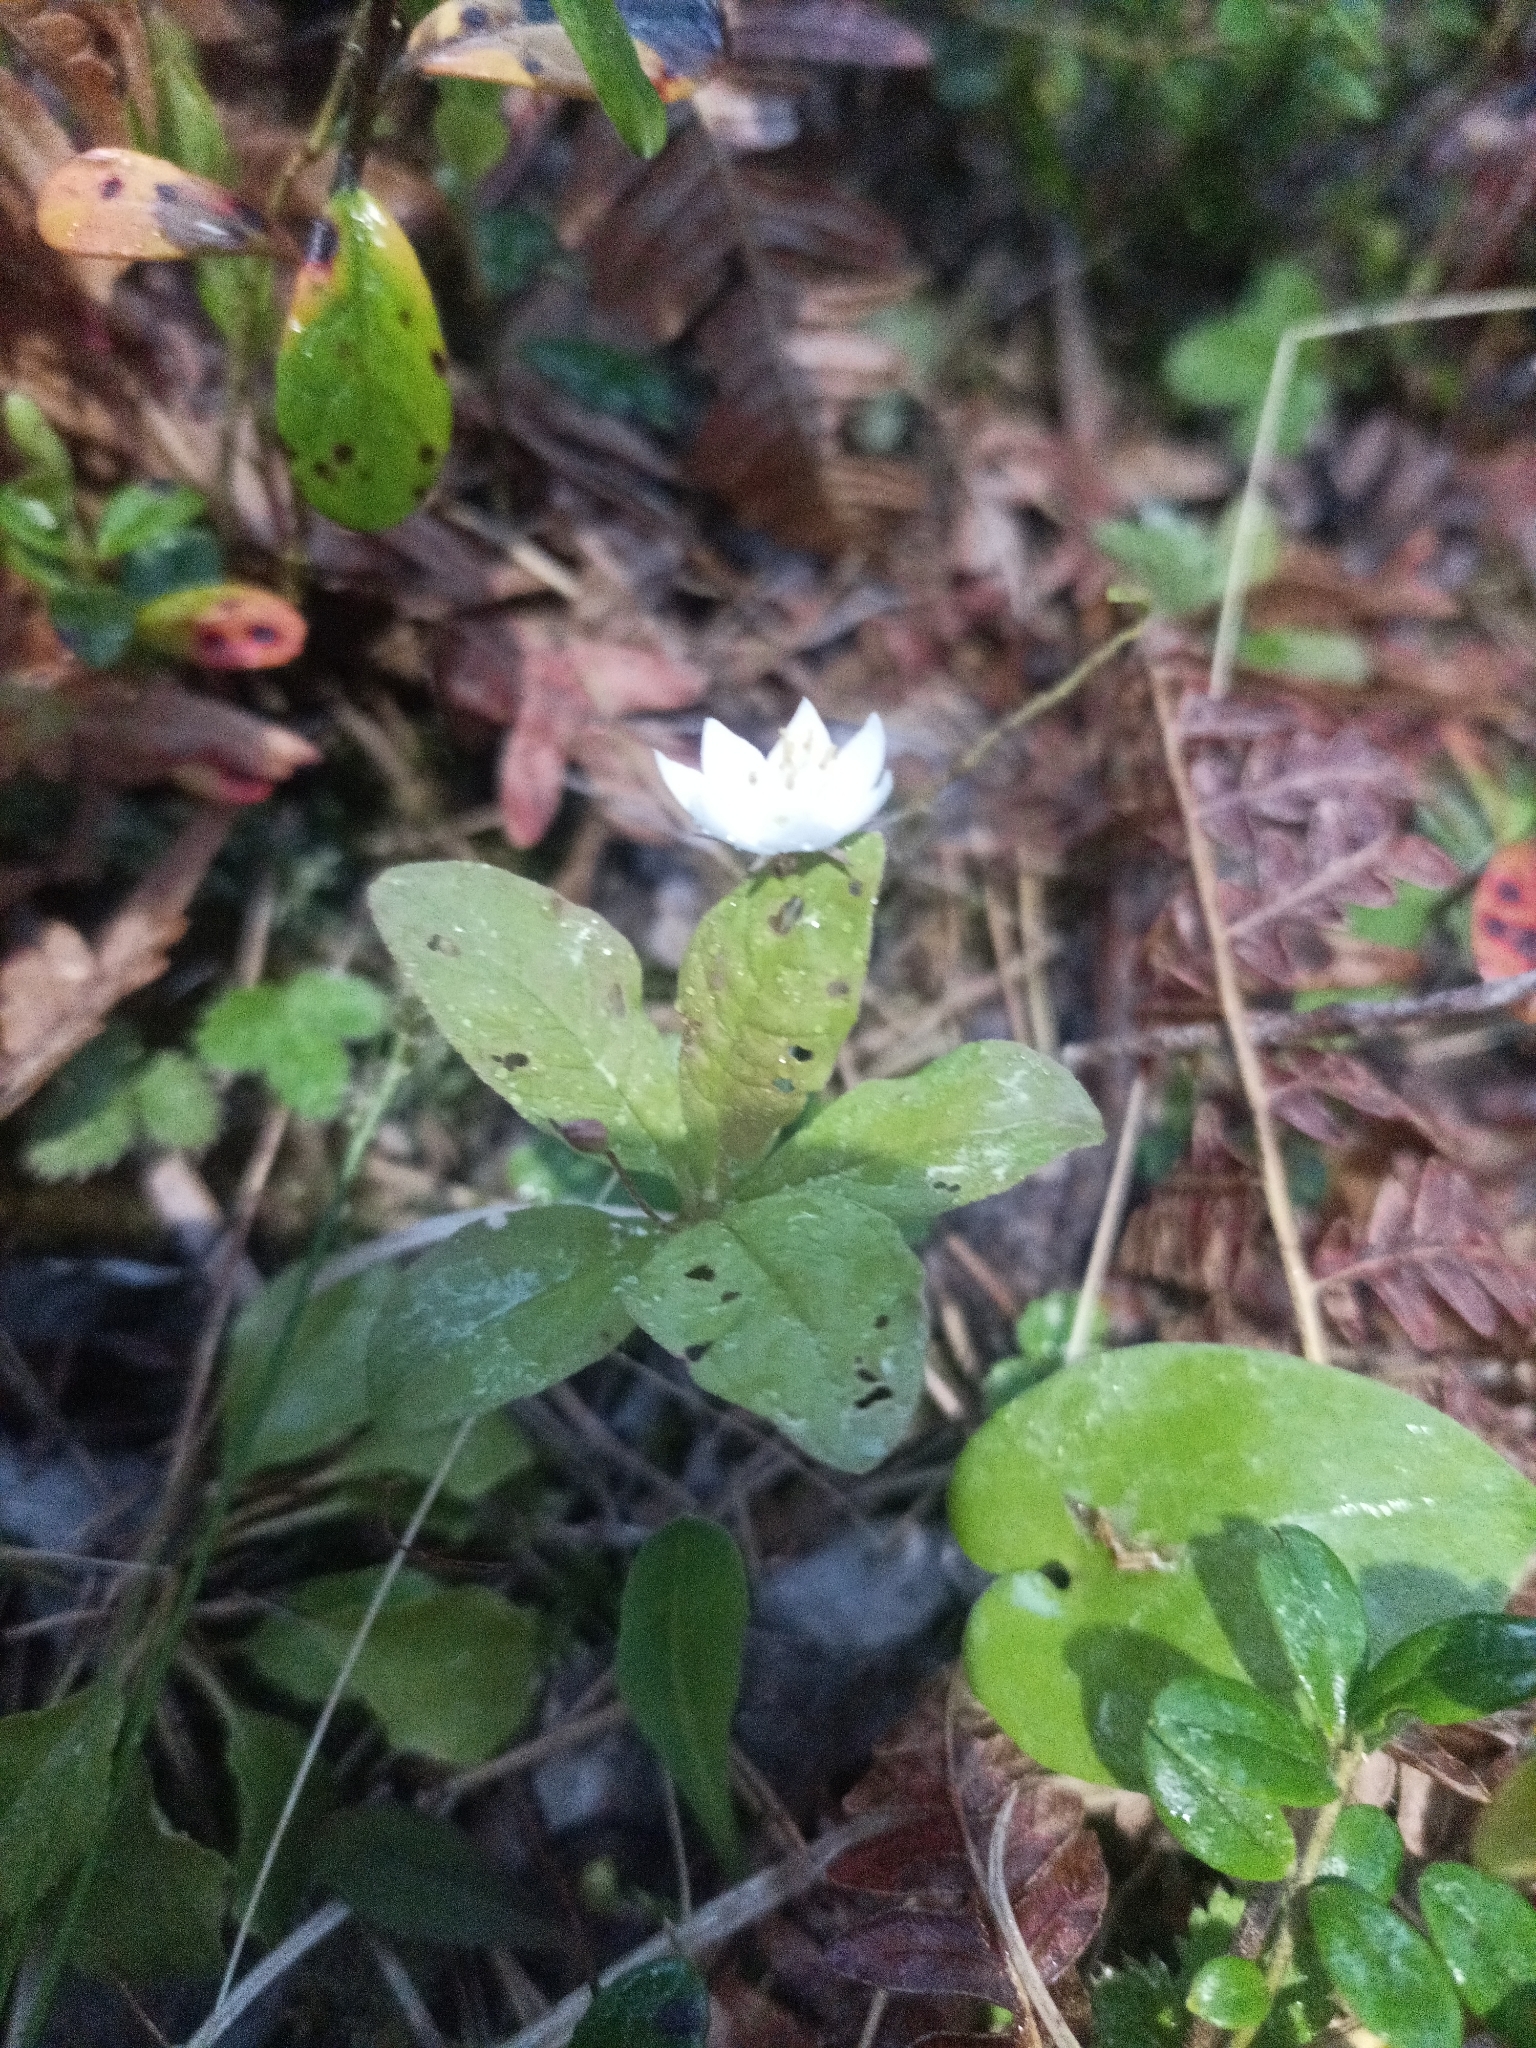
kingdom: Plantae
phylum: Tracheophyta
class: Magnoliopsida
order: Ericales
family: Primulaceae
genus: Lysimachia
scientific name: Lysimachia europaea
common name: Arctic starflower
